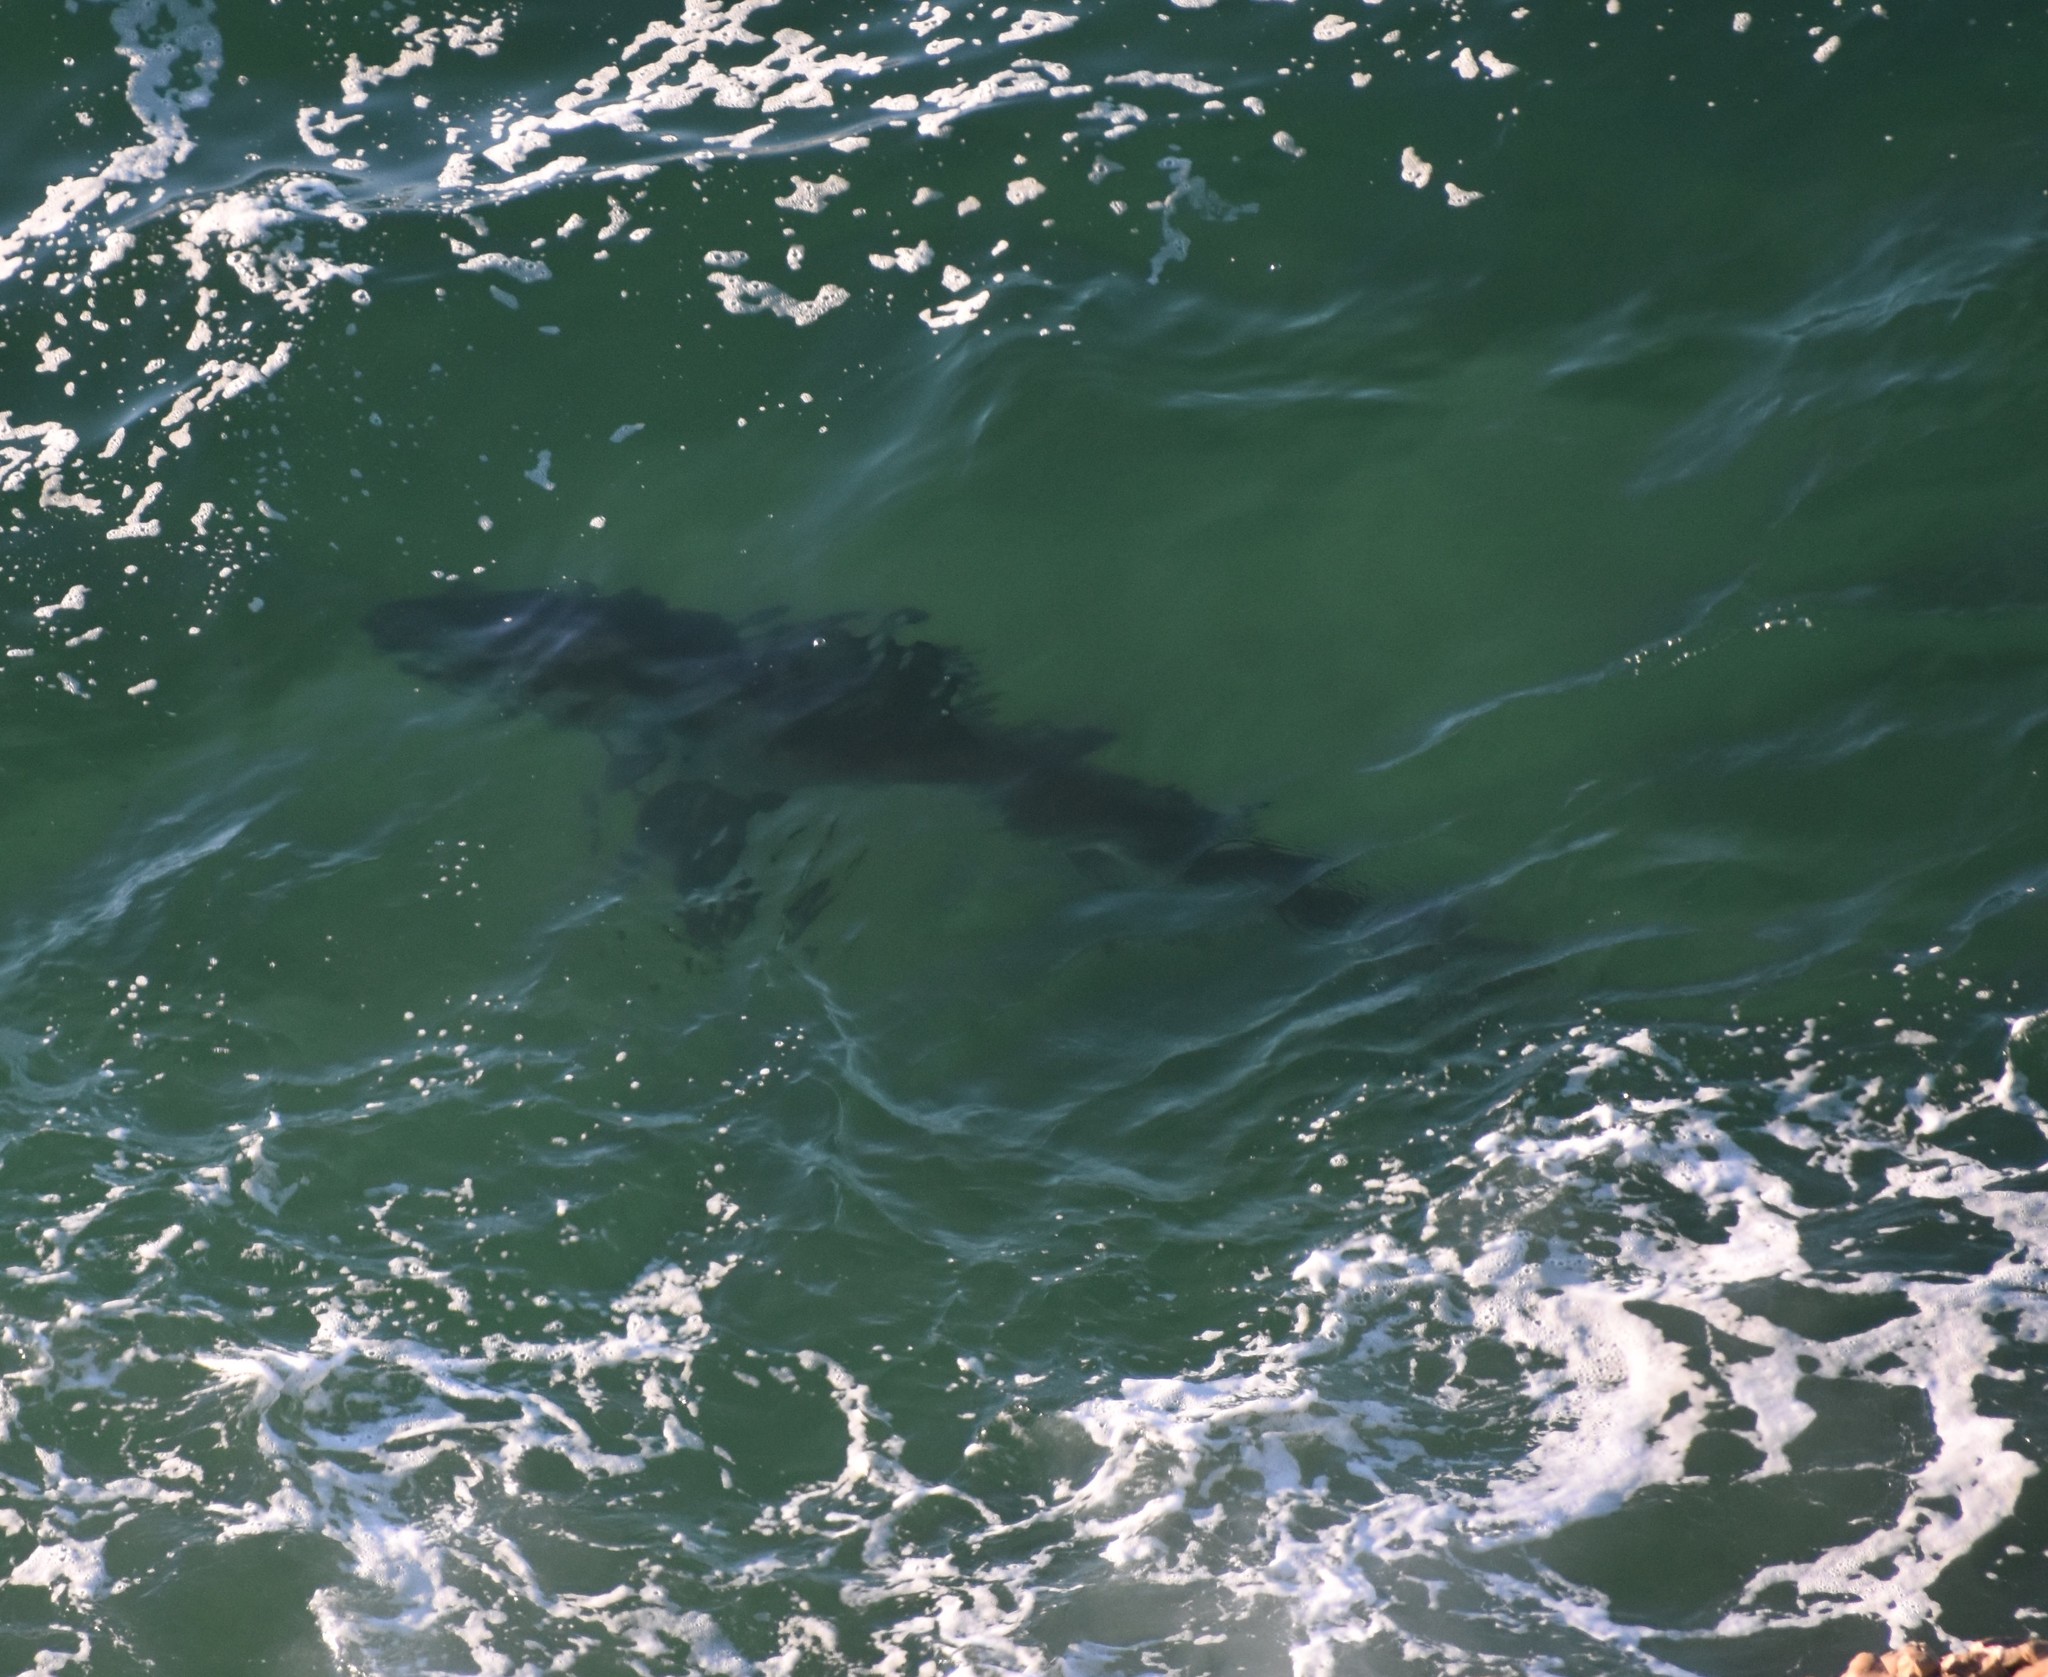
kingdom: Animalia
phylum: Chordata
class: Elasmobranchii
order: Lamniformes
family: Lamnidae
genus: Carcharodon
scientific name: Carcharodon carcharias
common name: Great white shark
